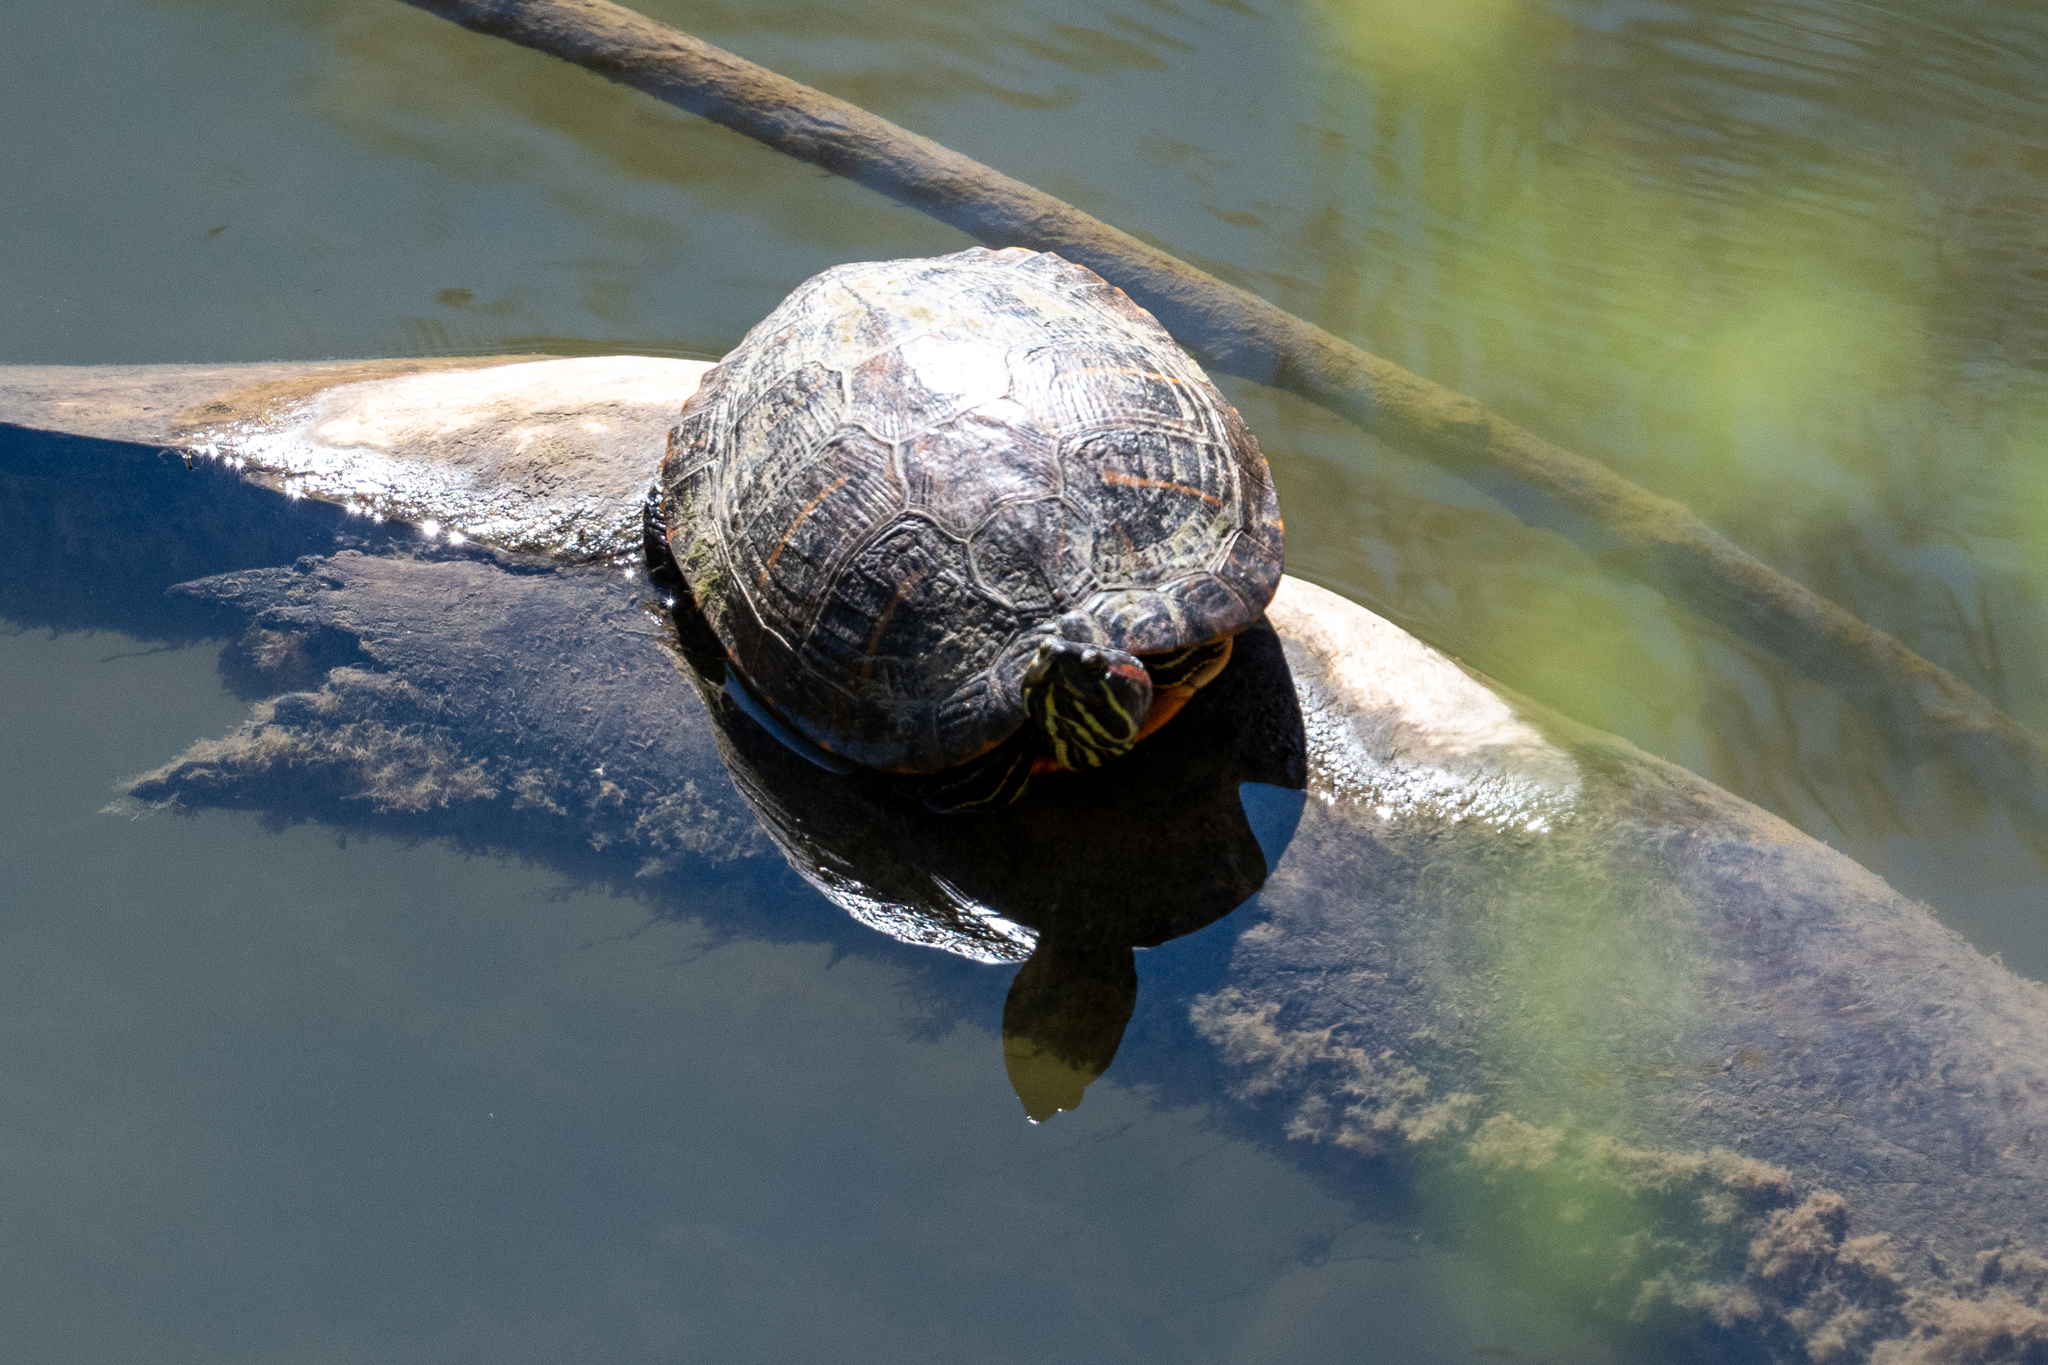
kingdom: Animalia
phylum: Chordata
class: Testudines
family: Emydidae
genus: Trachemys
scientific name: Trachemys scripta
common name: Slider
